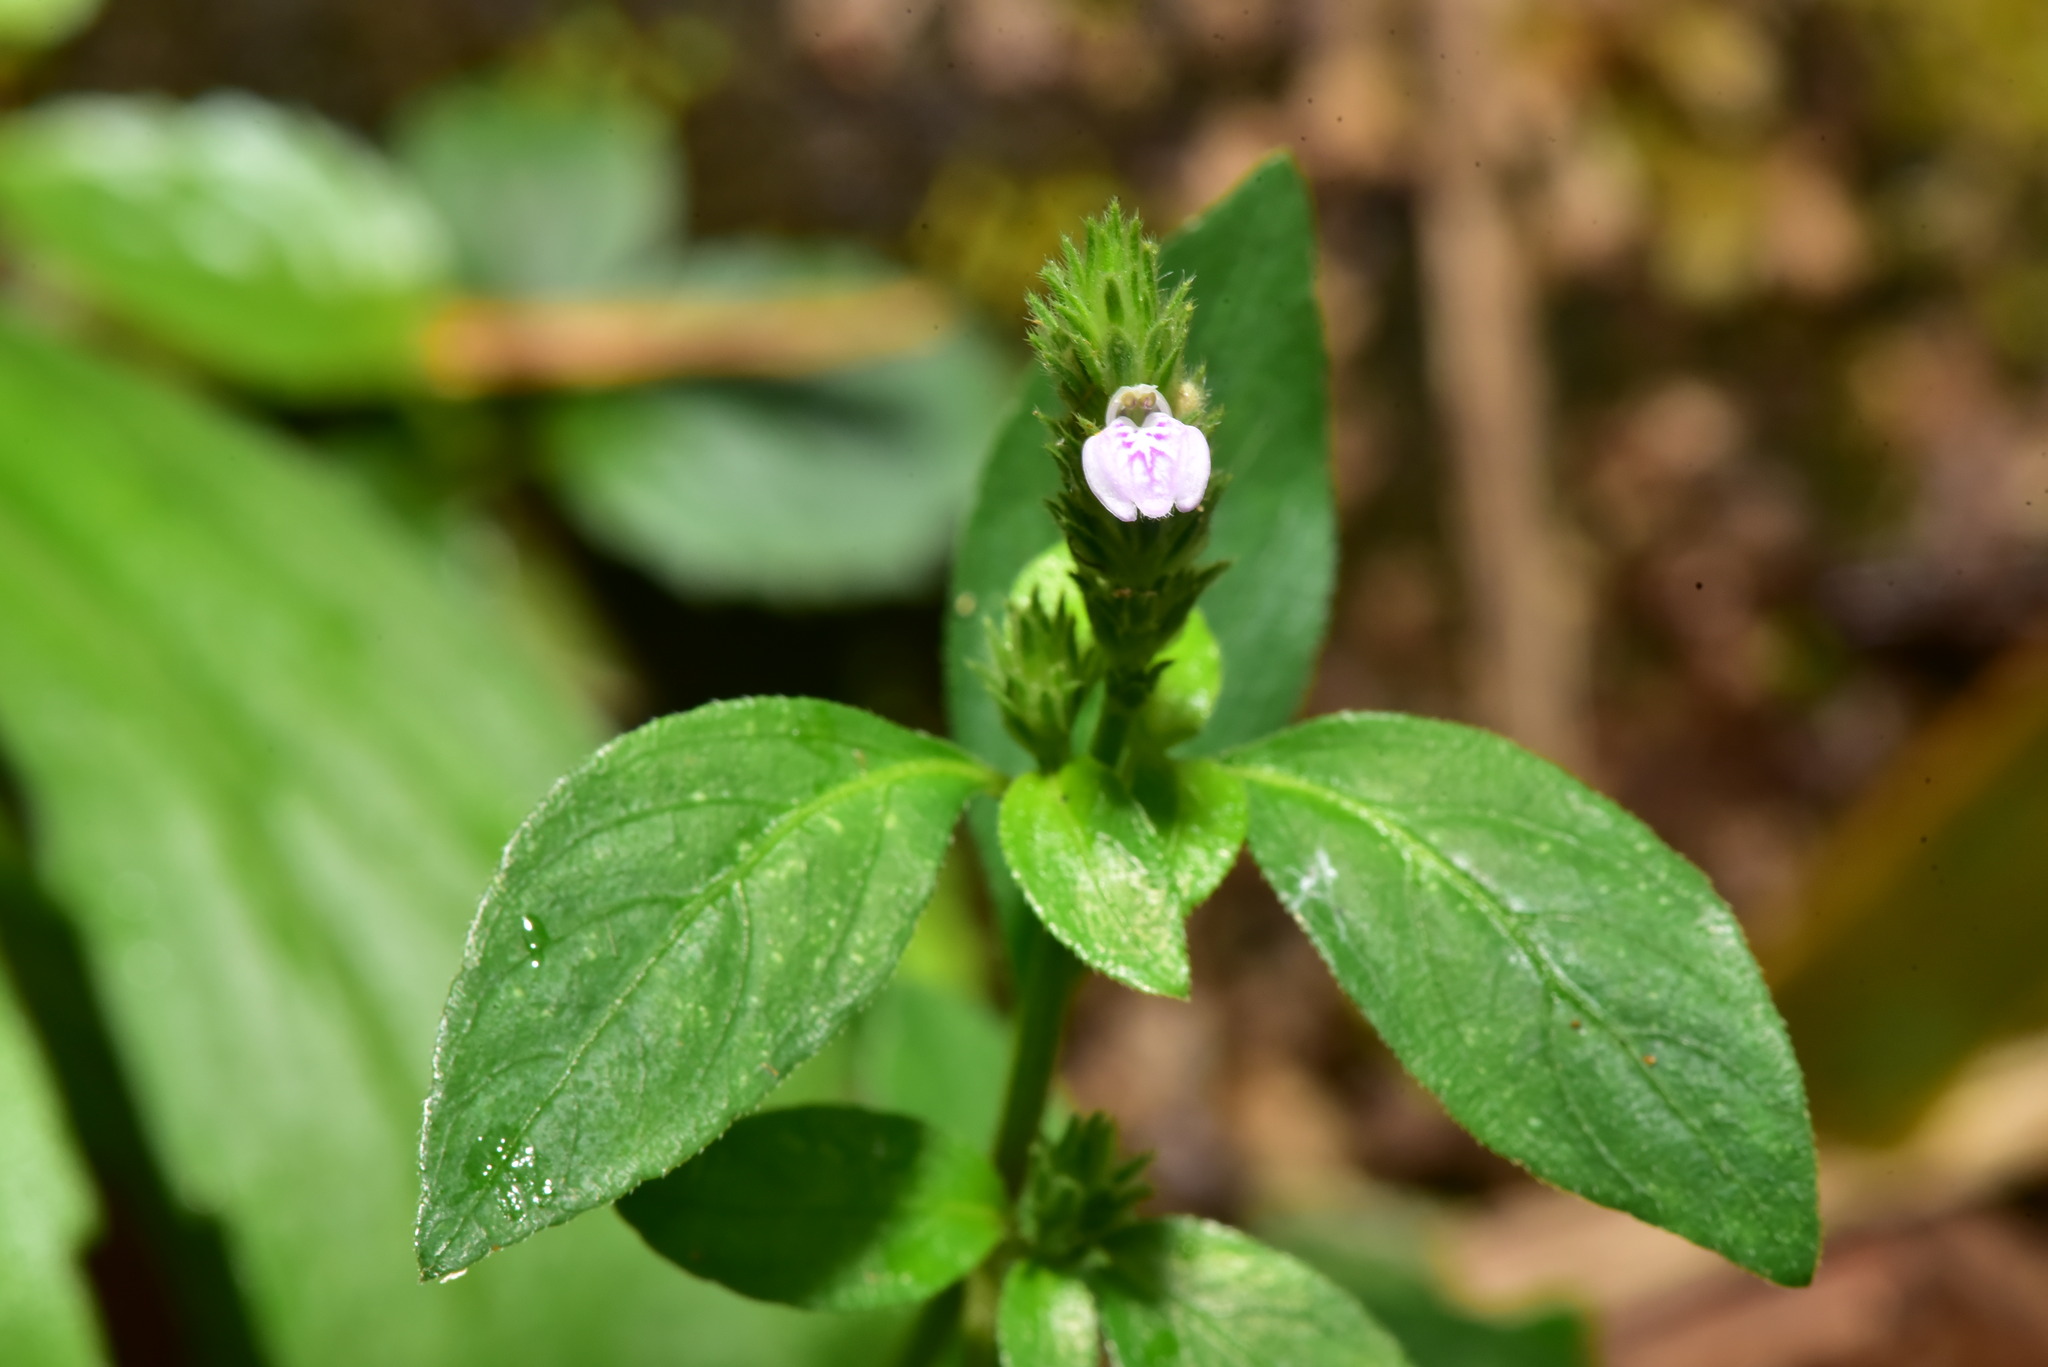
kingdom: Plantae
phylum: Tracheophyta
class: Magnoliopsida
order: Lamiales
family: Acanthaceae
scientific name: Acanthaceae
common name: Acanthaceae
